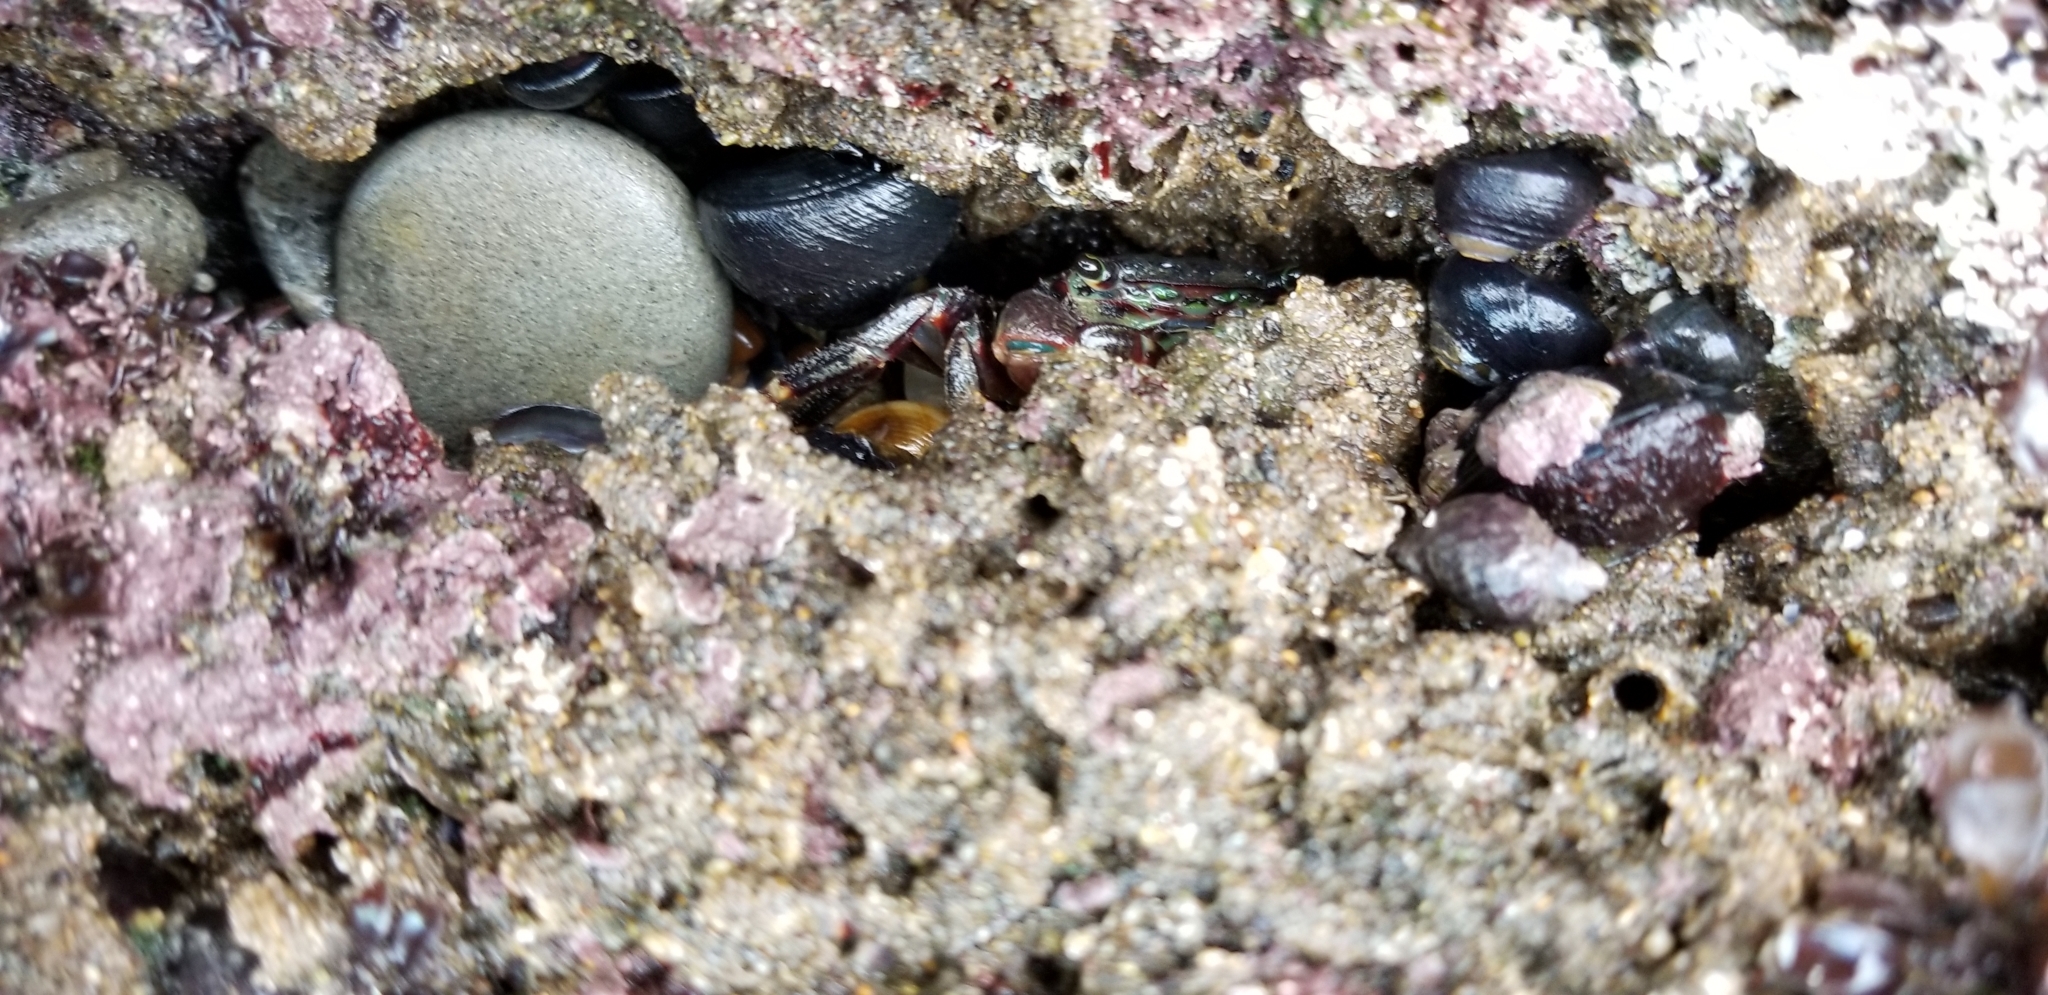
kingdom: Animalia
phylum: Arthropoda
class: Malacostraca
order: Decapoda
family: Grapsidae
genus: Pachygrapsus
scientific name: Pachygrapsus crassipes
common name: Striped shore crab
